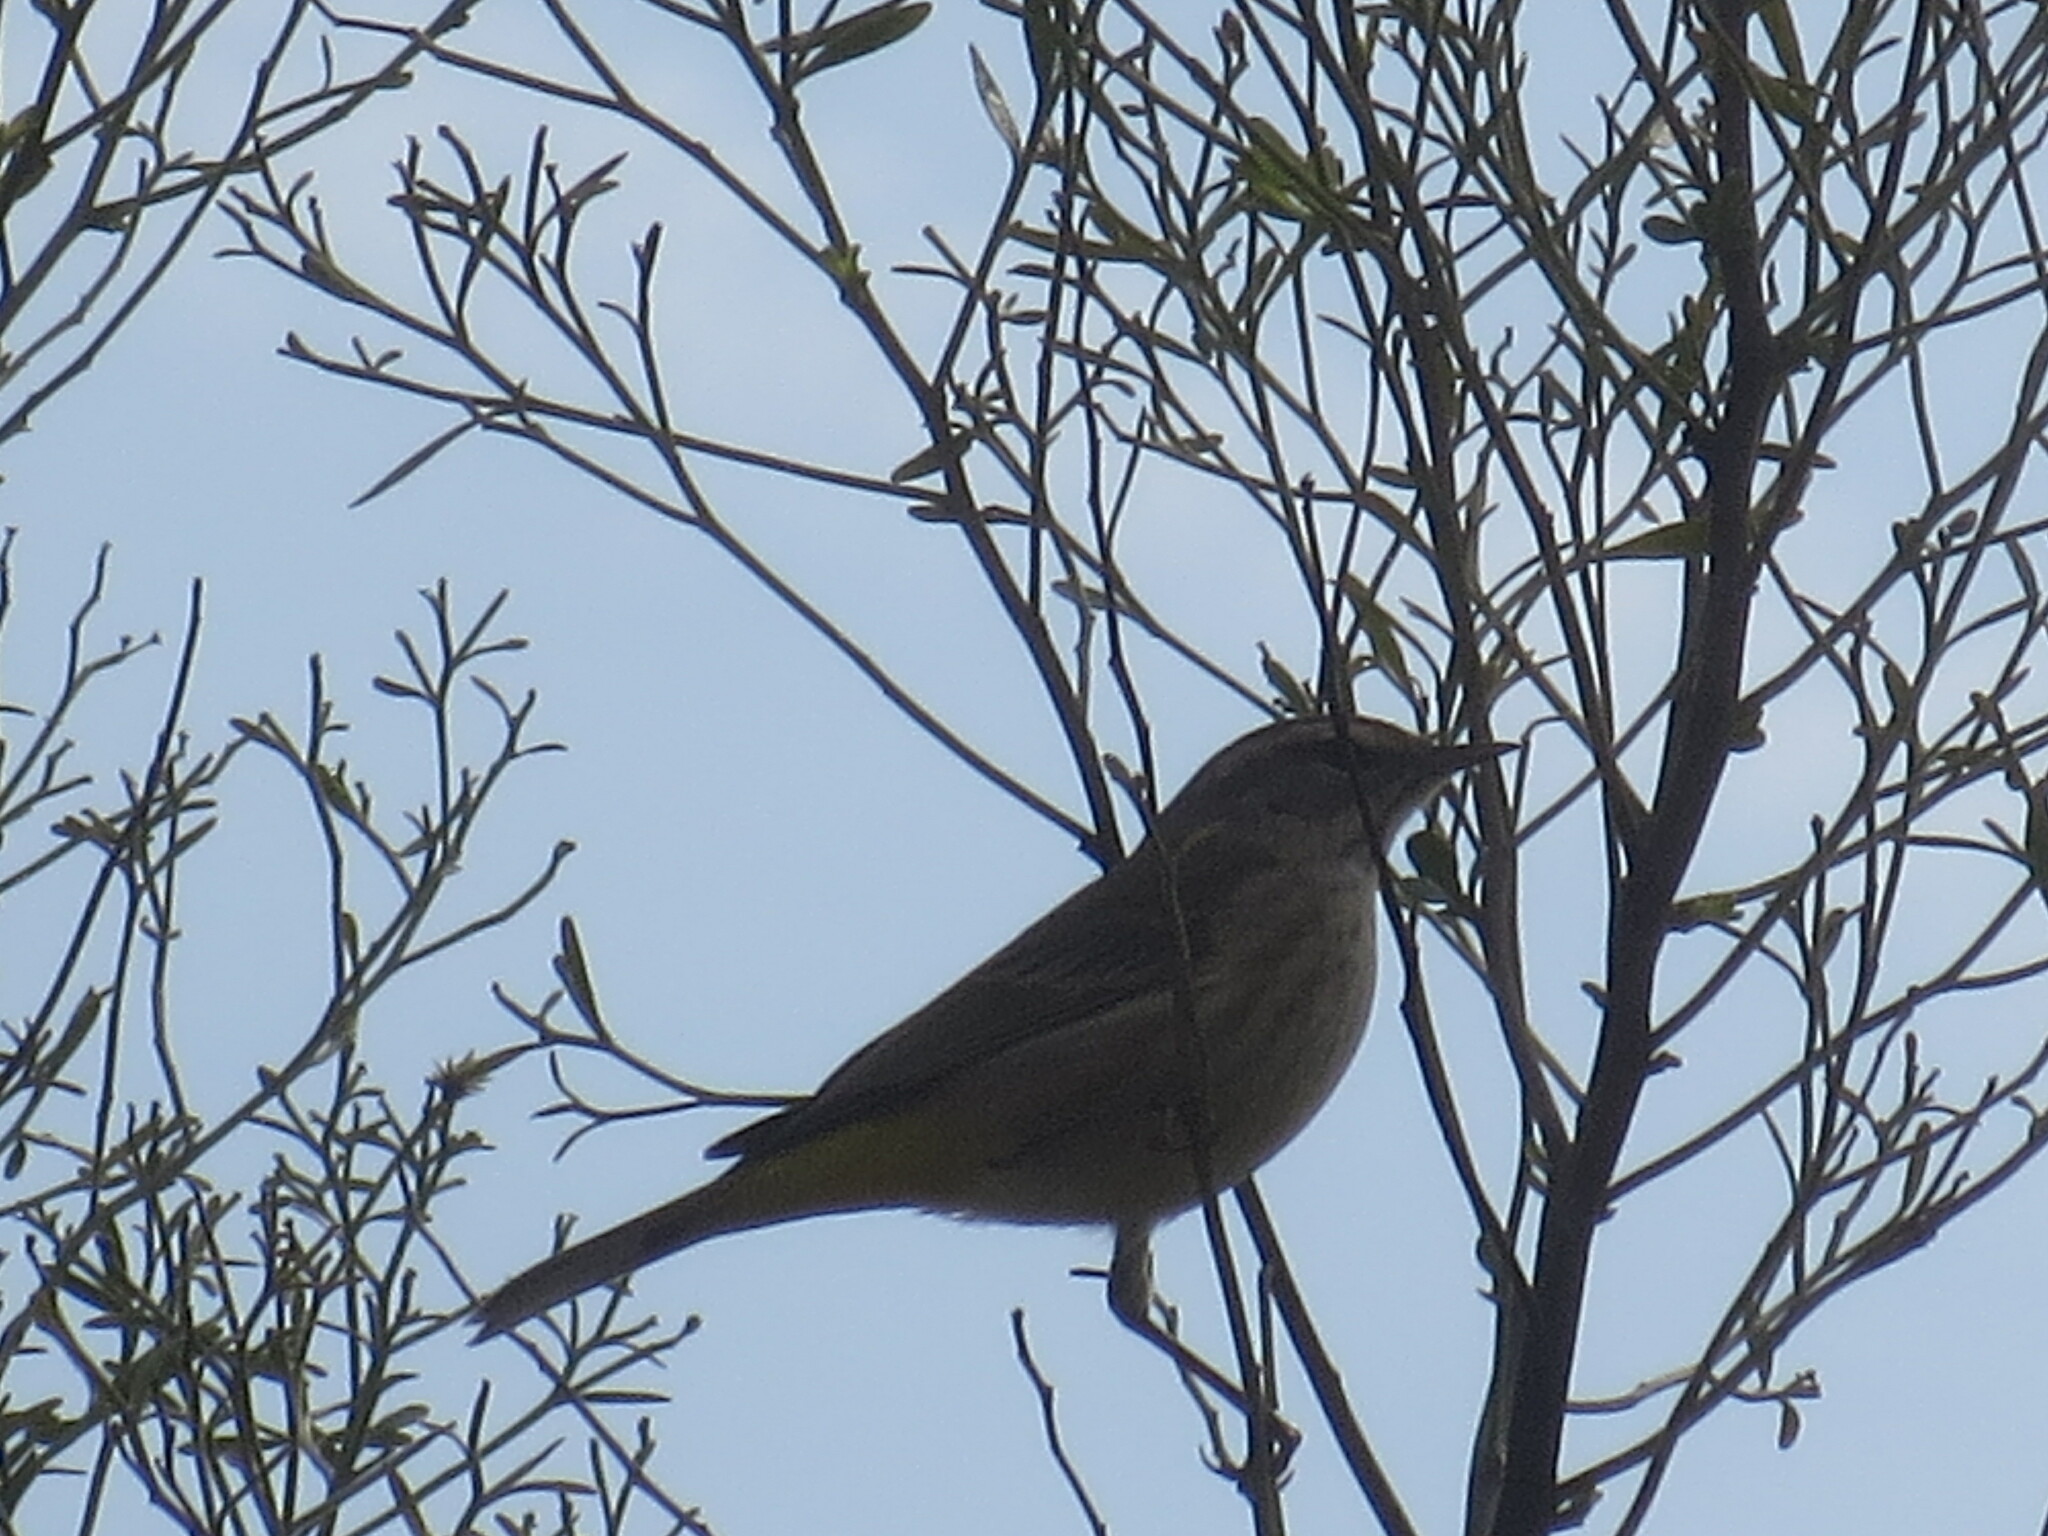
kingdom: Animalia
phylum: Chordata
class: Aves
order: Passeriformes
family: Parulidae
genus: Setophaga
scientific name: Setophaga palmarum
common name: Palm warbler
